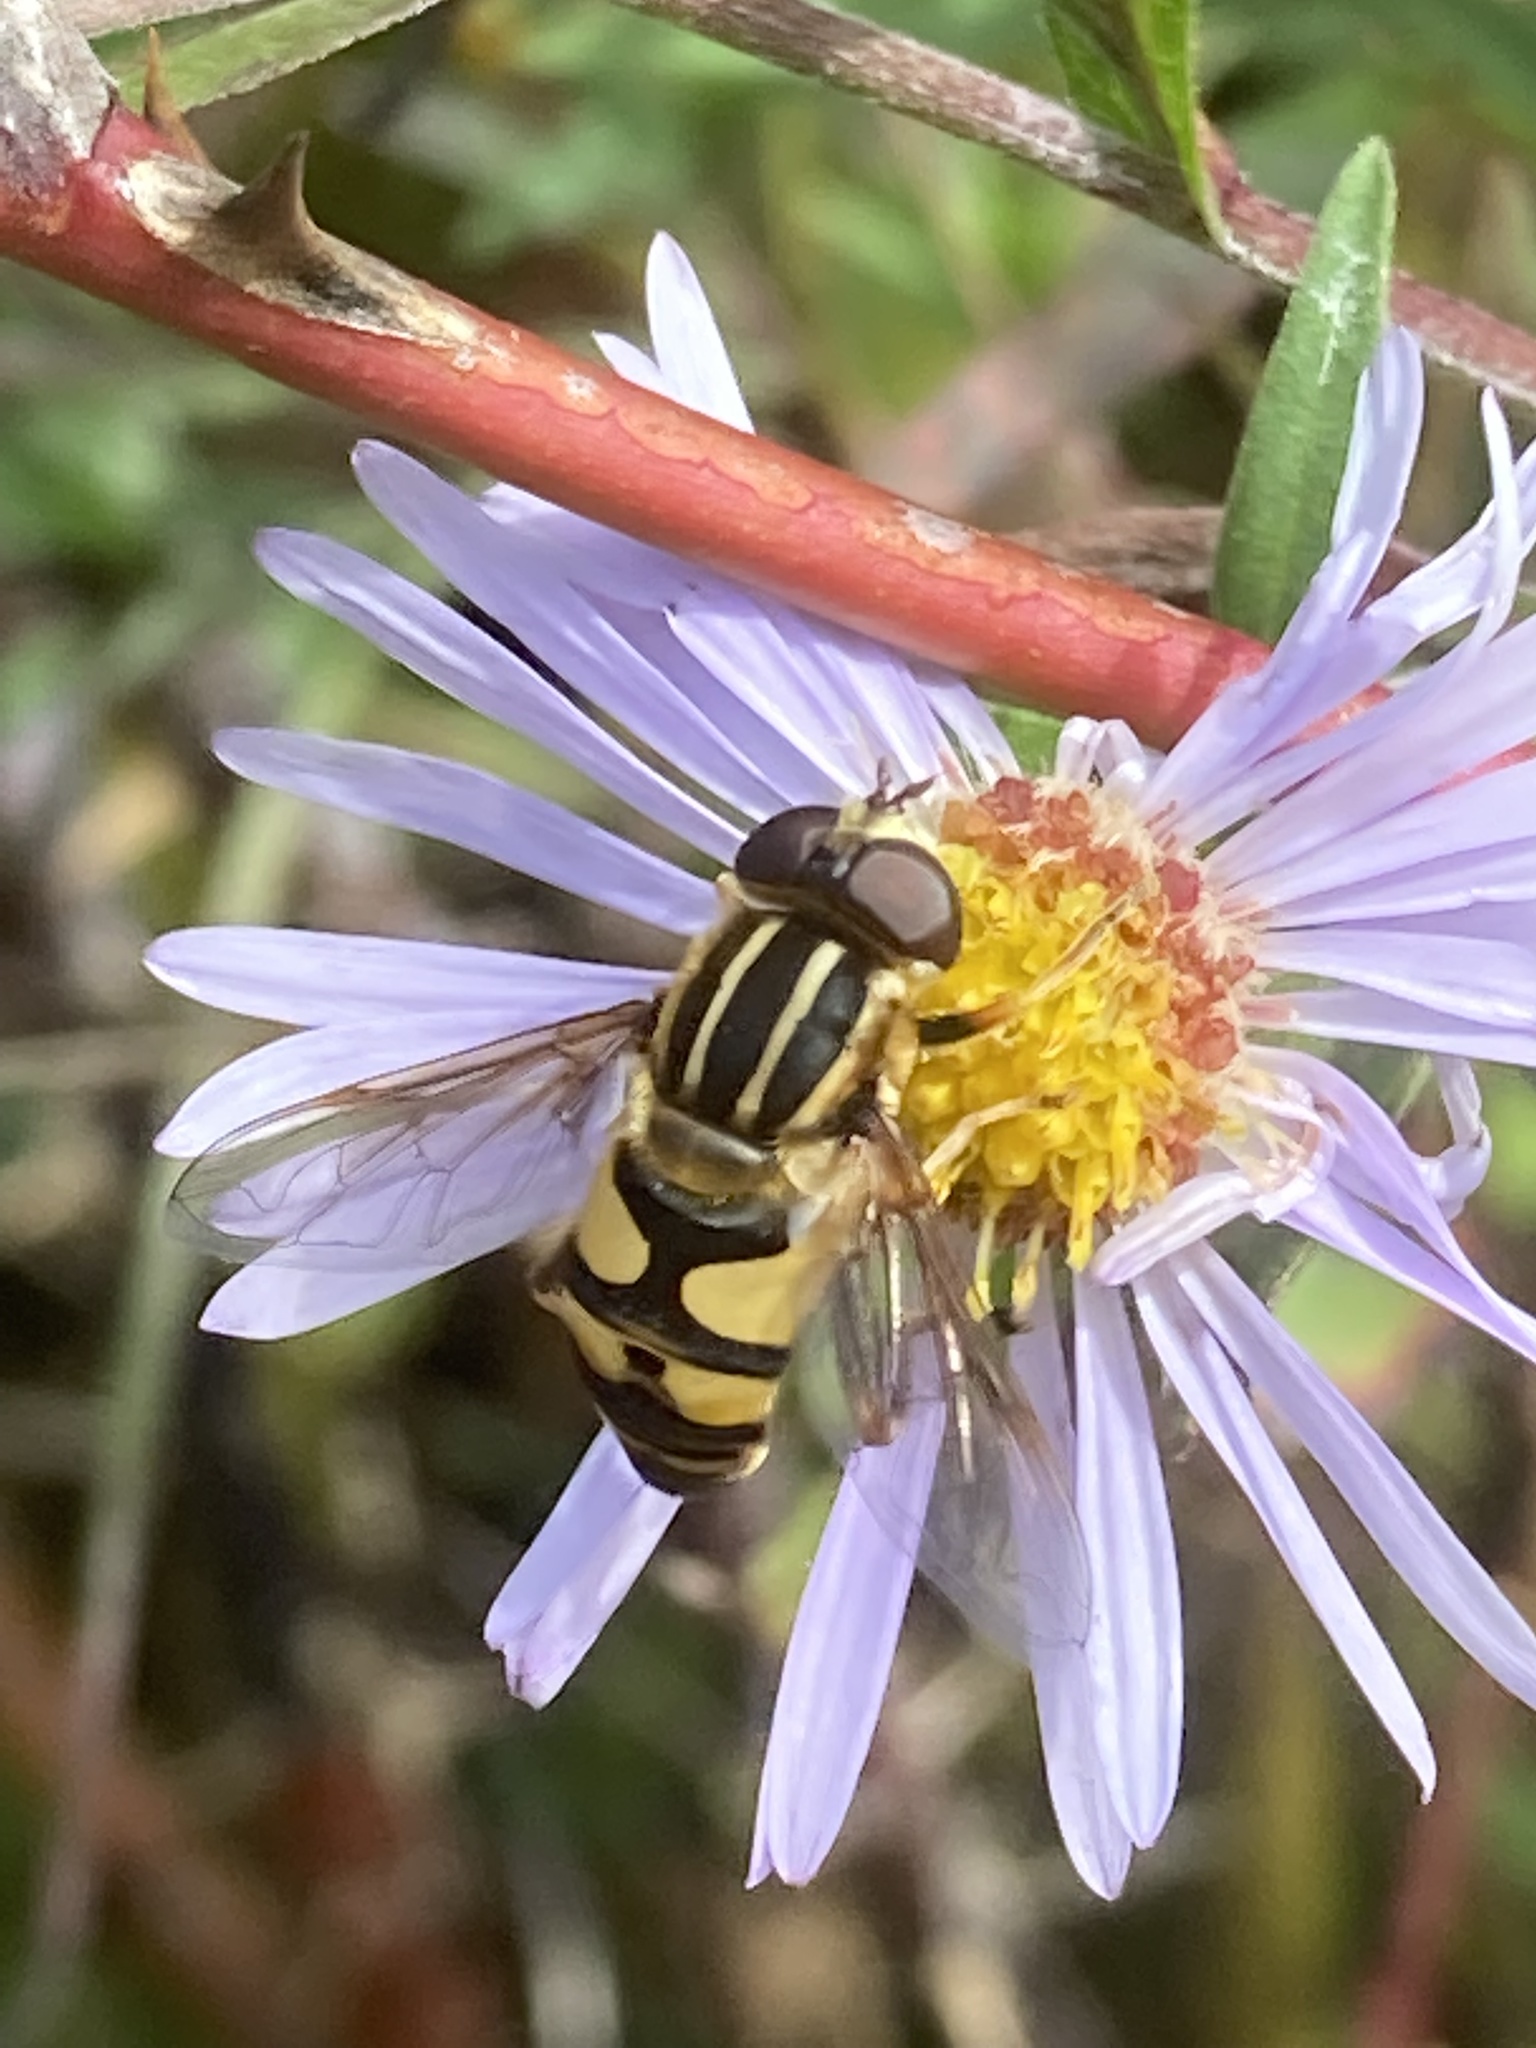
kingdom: Animalia
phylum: Arthropoda
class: Insecta
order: Diptera
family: Syrphidae
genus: Helophilus
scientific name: Helophilus fasciatus
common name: Narrow-headed marsh fly
